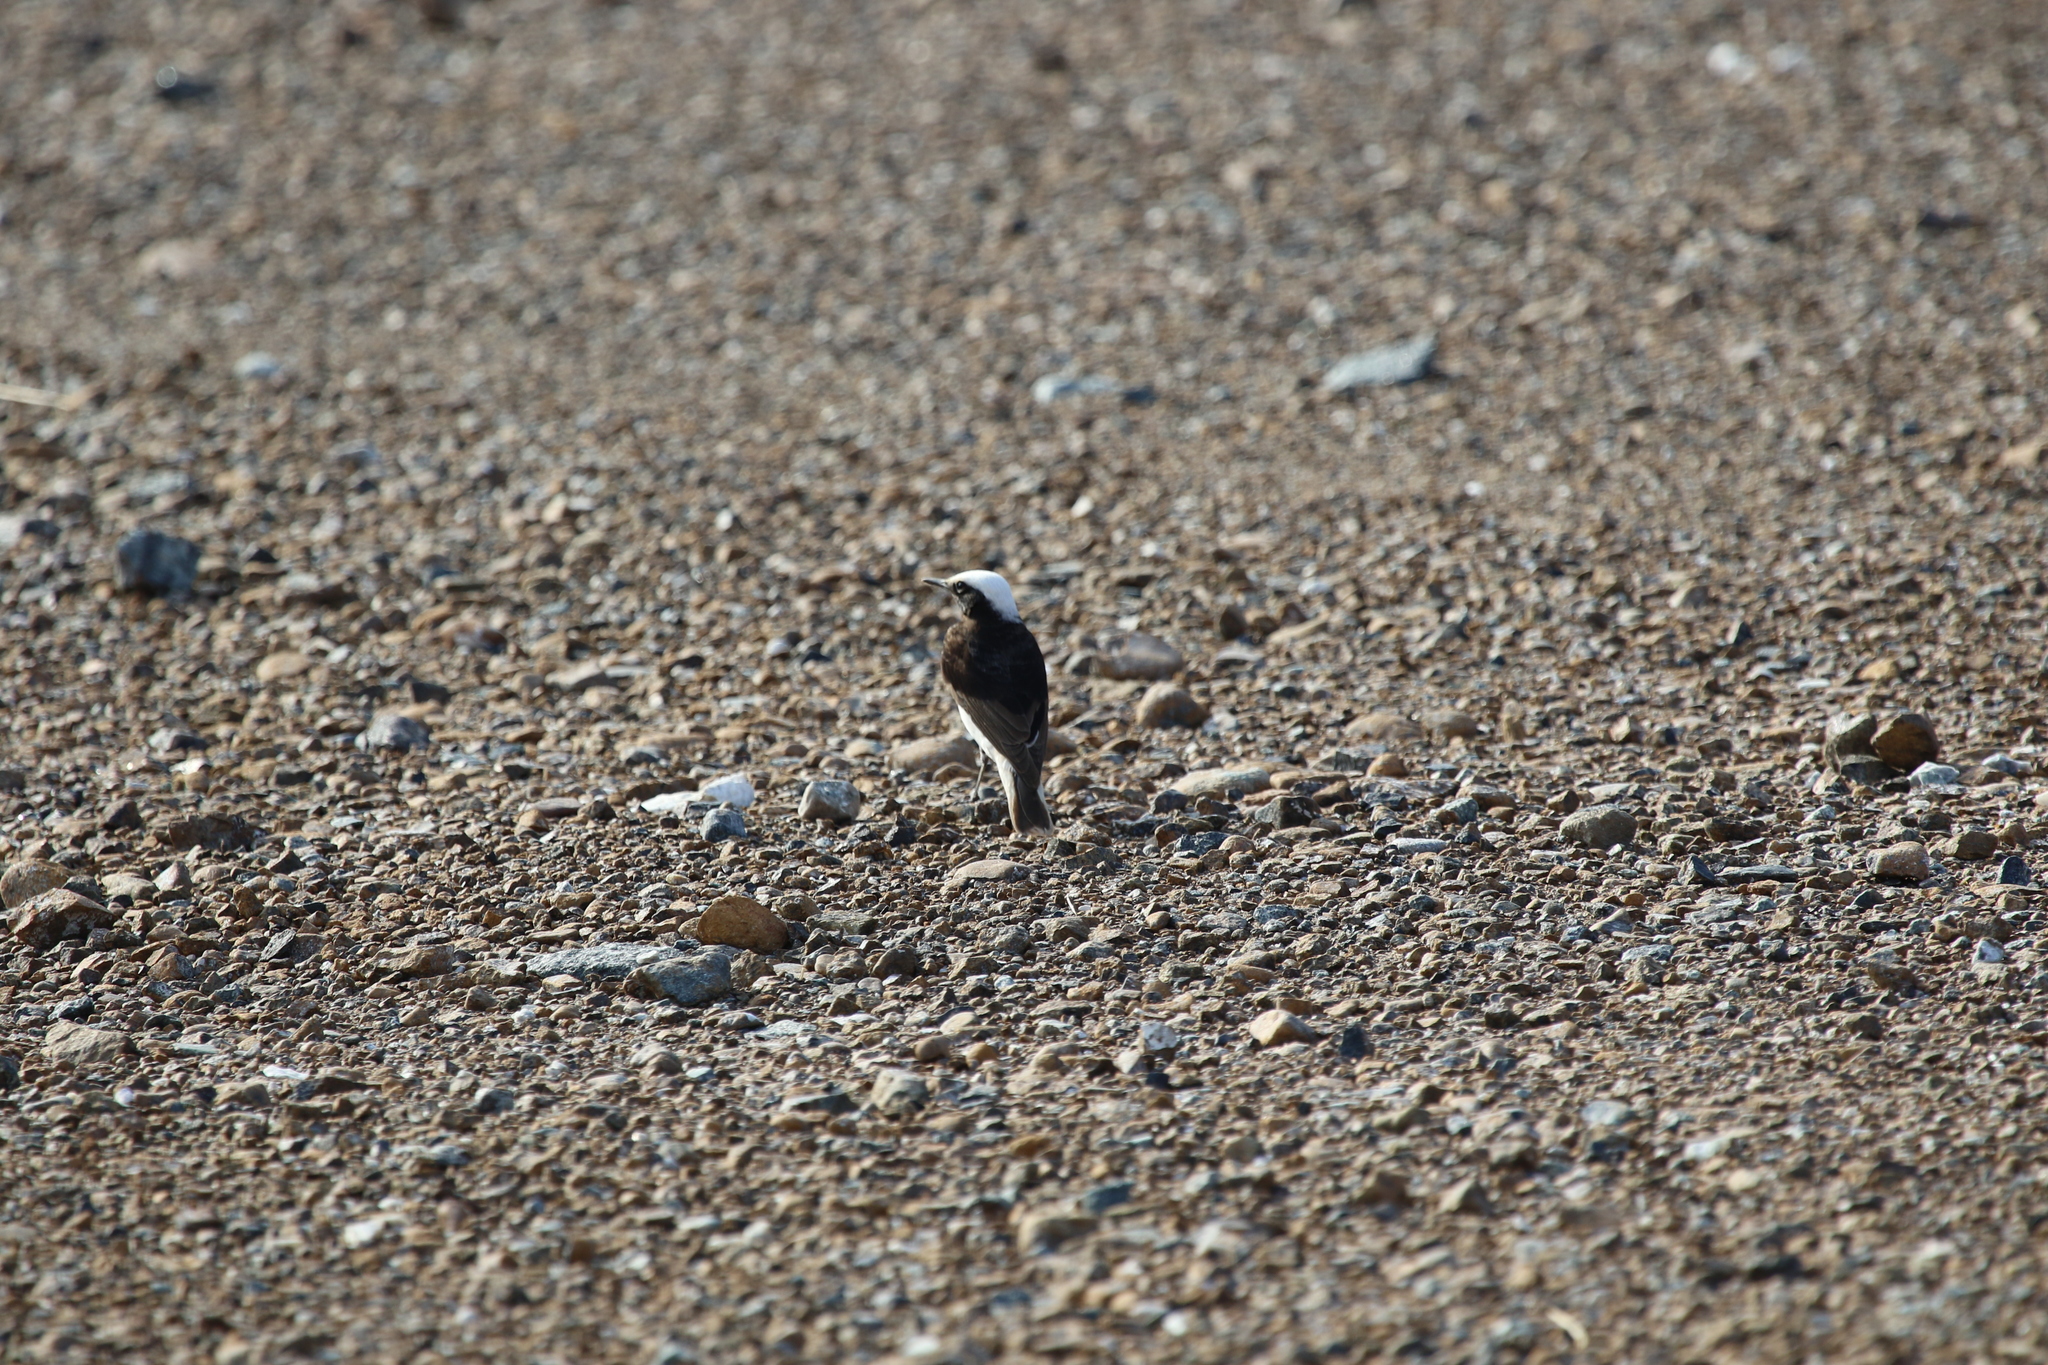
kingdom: Animalia
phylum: Chordata
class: Aves
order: Passeriformes
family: Muscicapidae
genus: Oenanthe
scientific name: Oenanthe monacha
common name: Hooded wheatear
